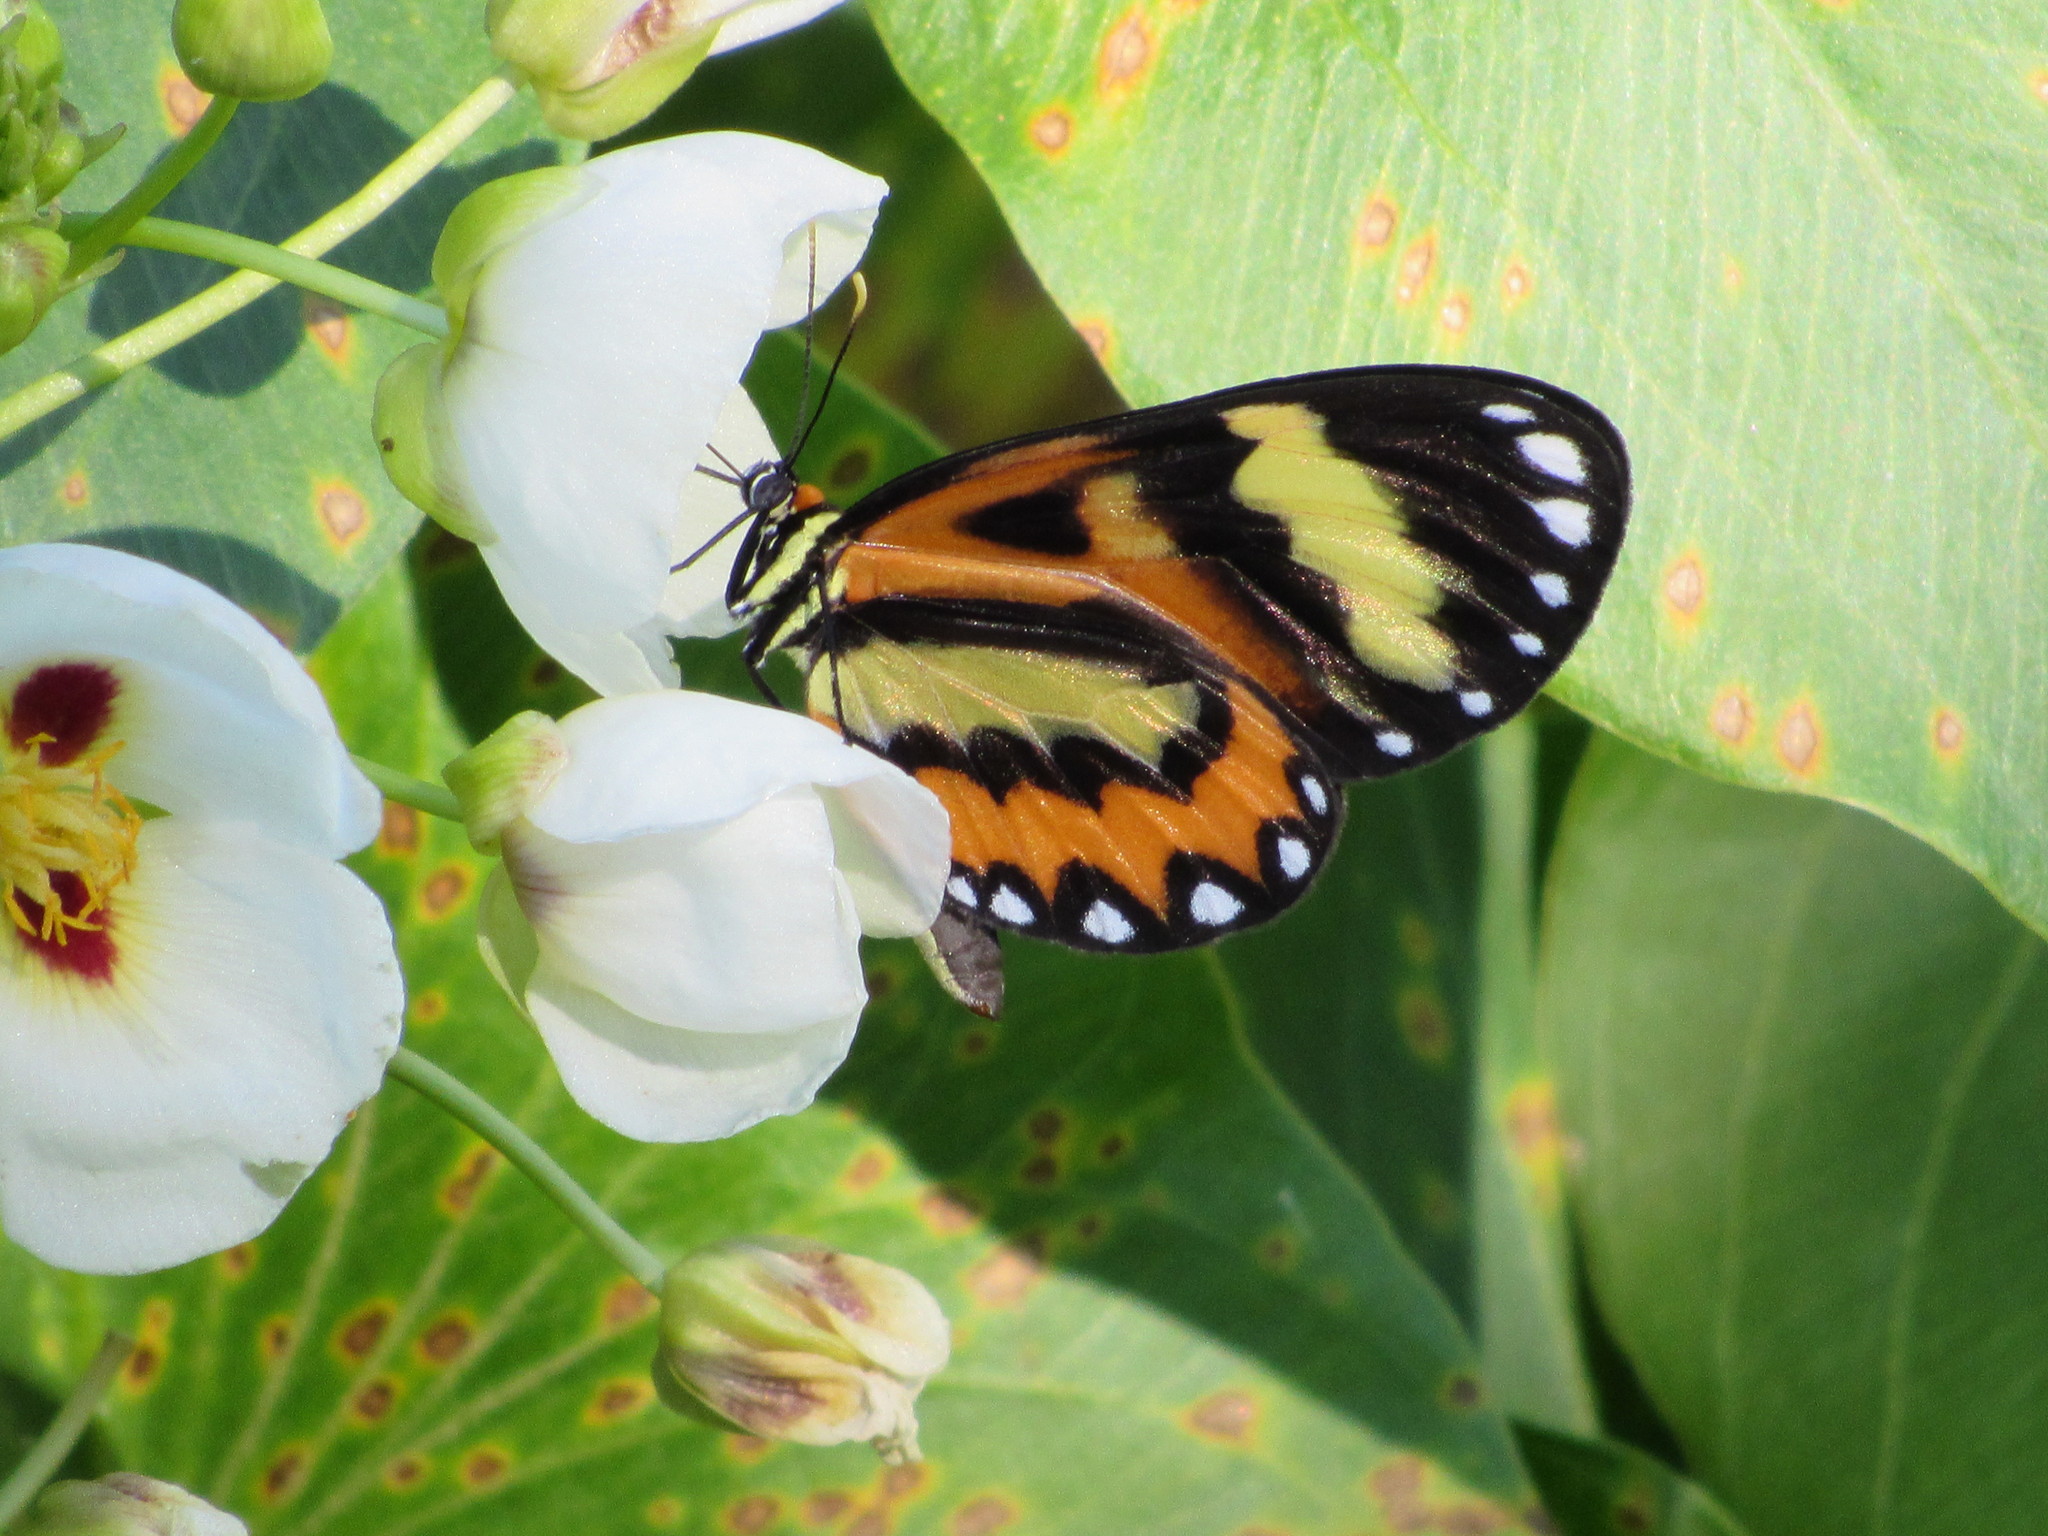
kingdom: Animalia
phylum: Arthropoda
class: Insecta
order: Lepidoptera
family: Nymphalidae
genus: Placidina
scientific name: Placidina euryanassa
